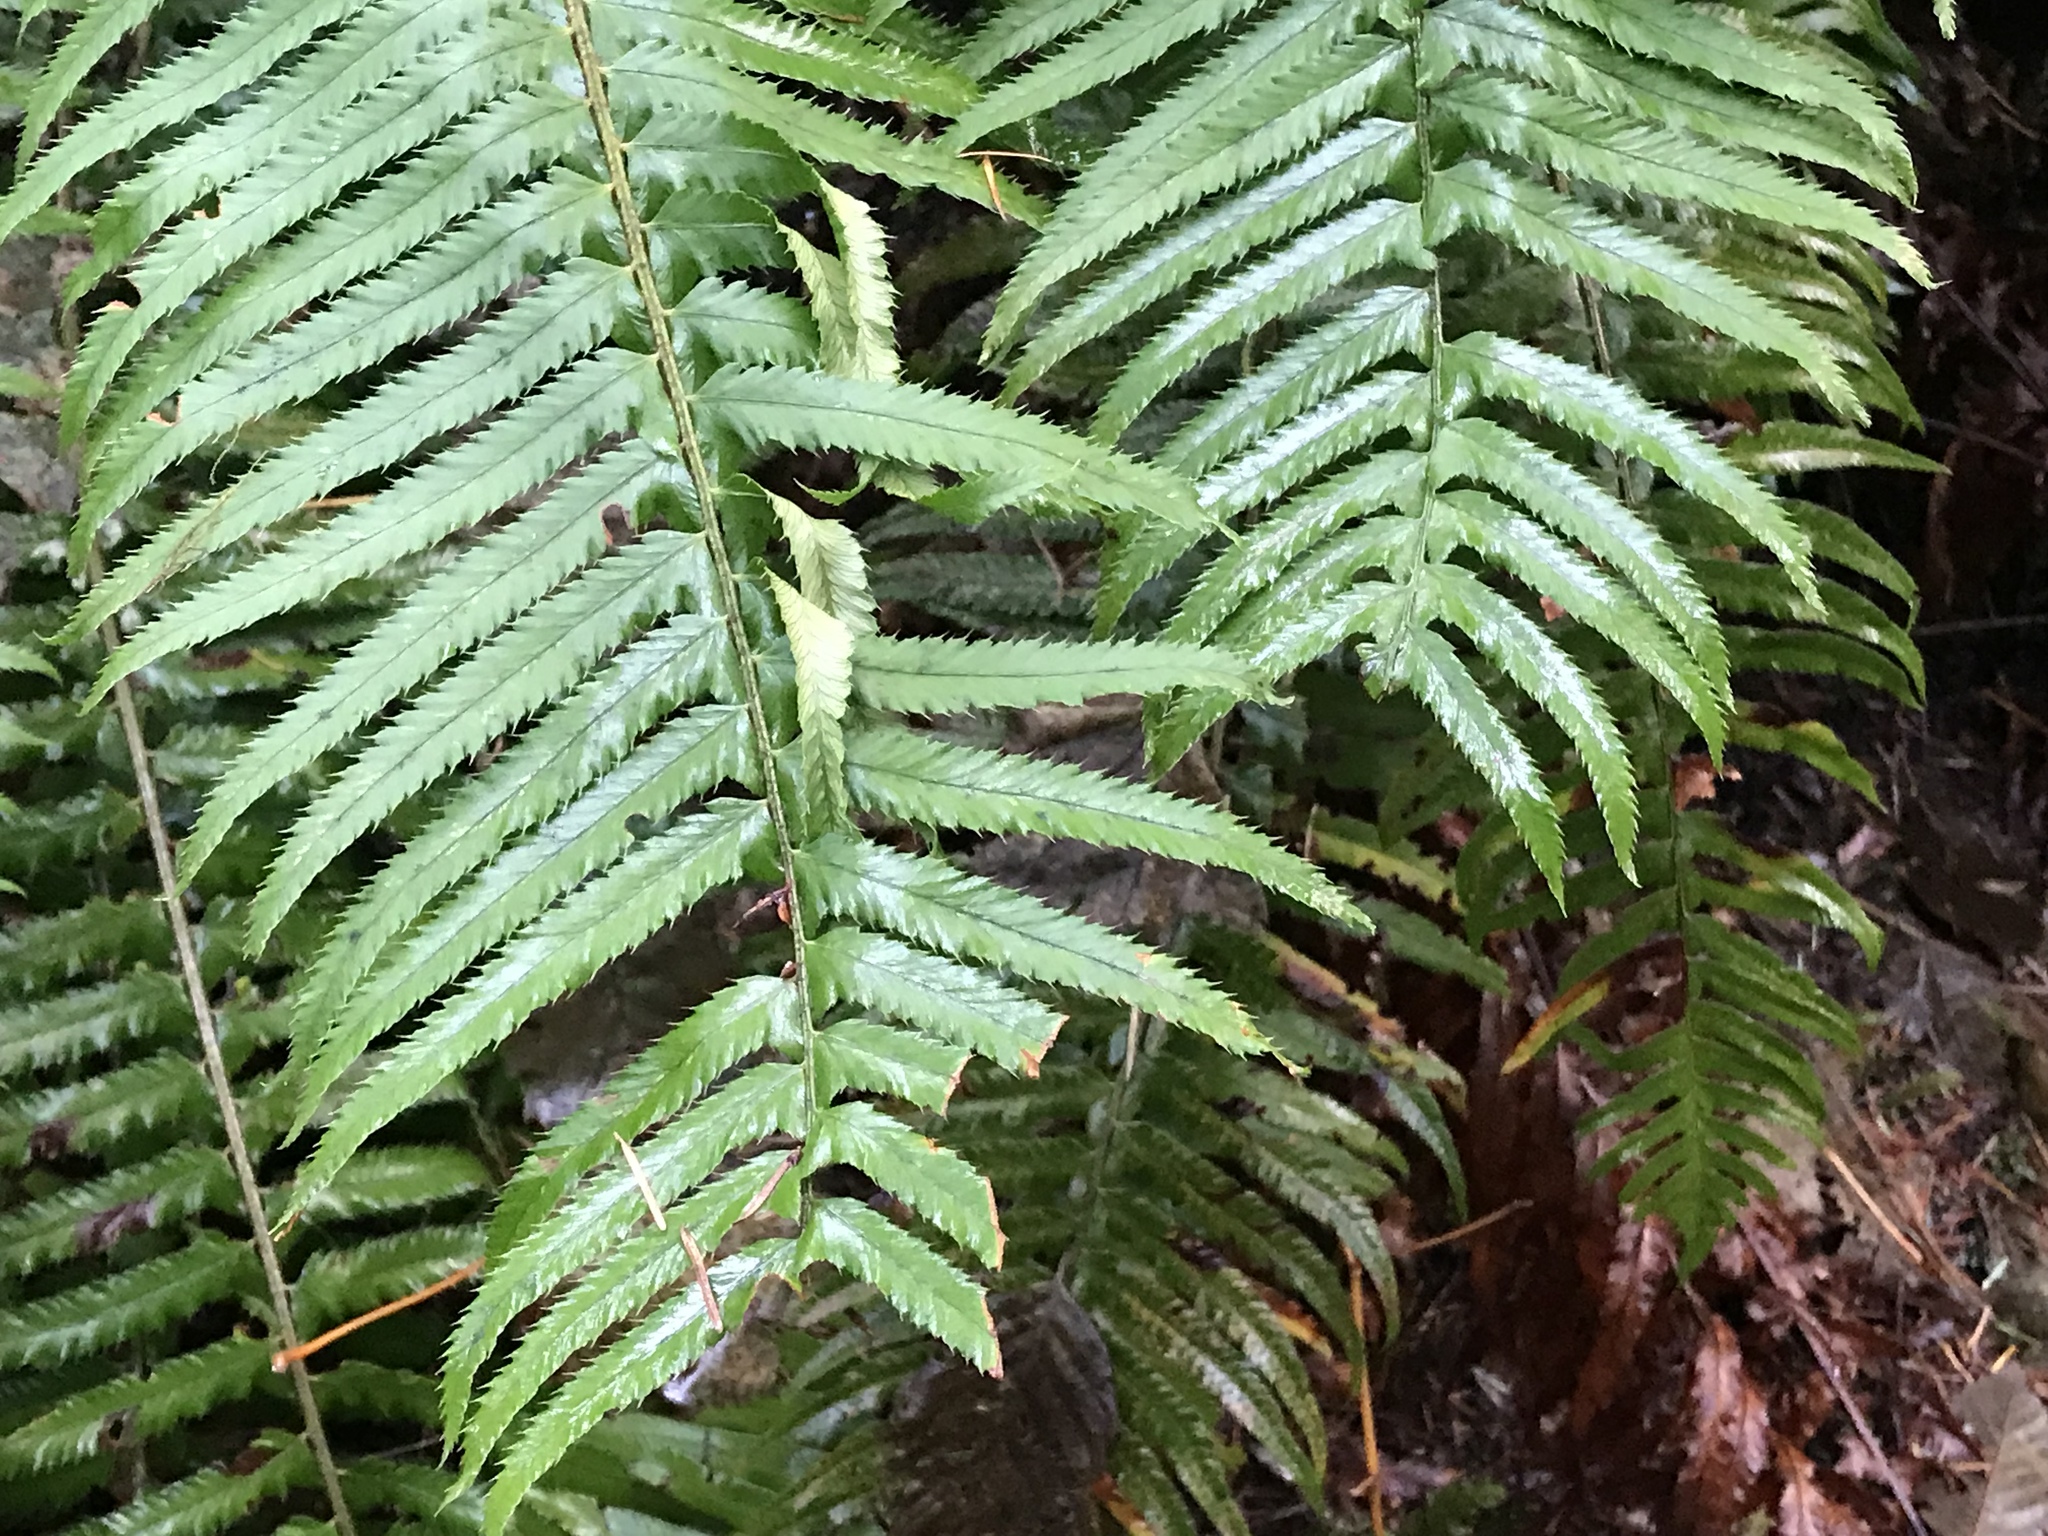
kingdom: Plantae
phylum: Tracheophyta
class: Polypodiopsida
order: Polypodiales
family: Dryopteridaceae
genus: Polystichum
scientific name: Polystichum munitum
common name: Western sword-fern
